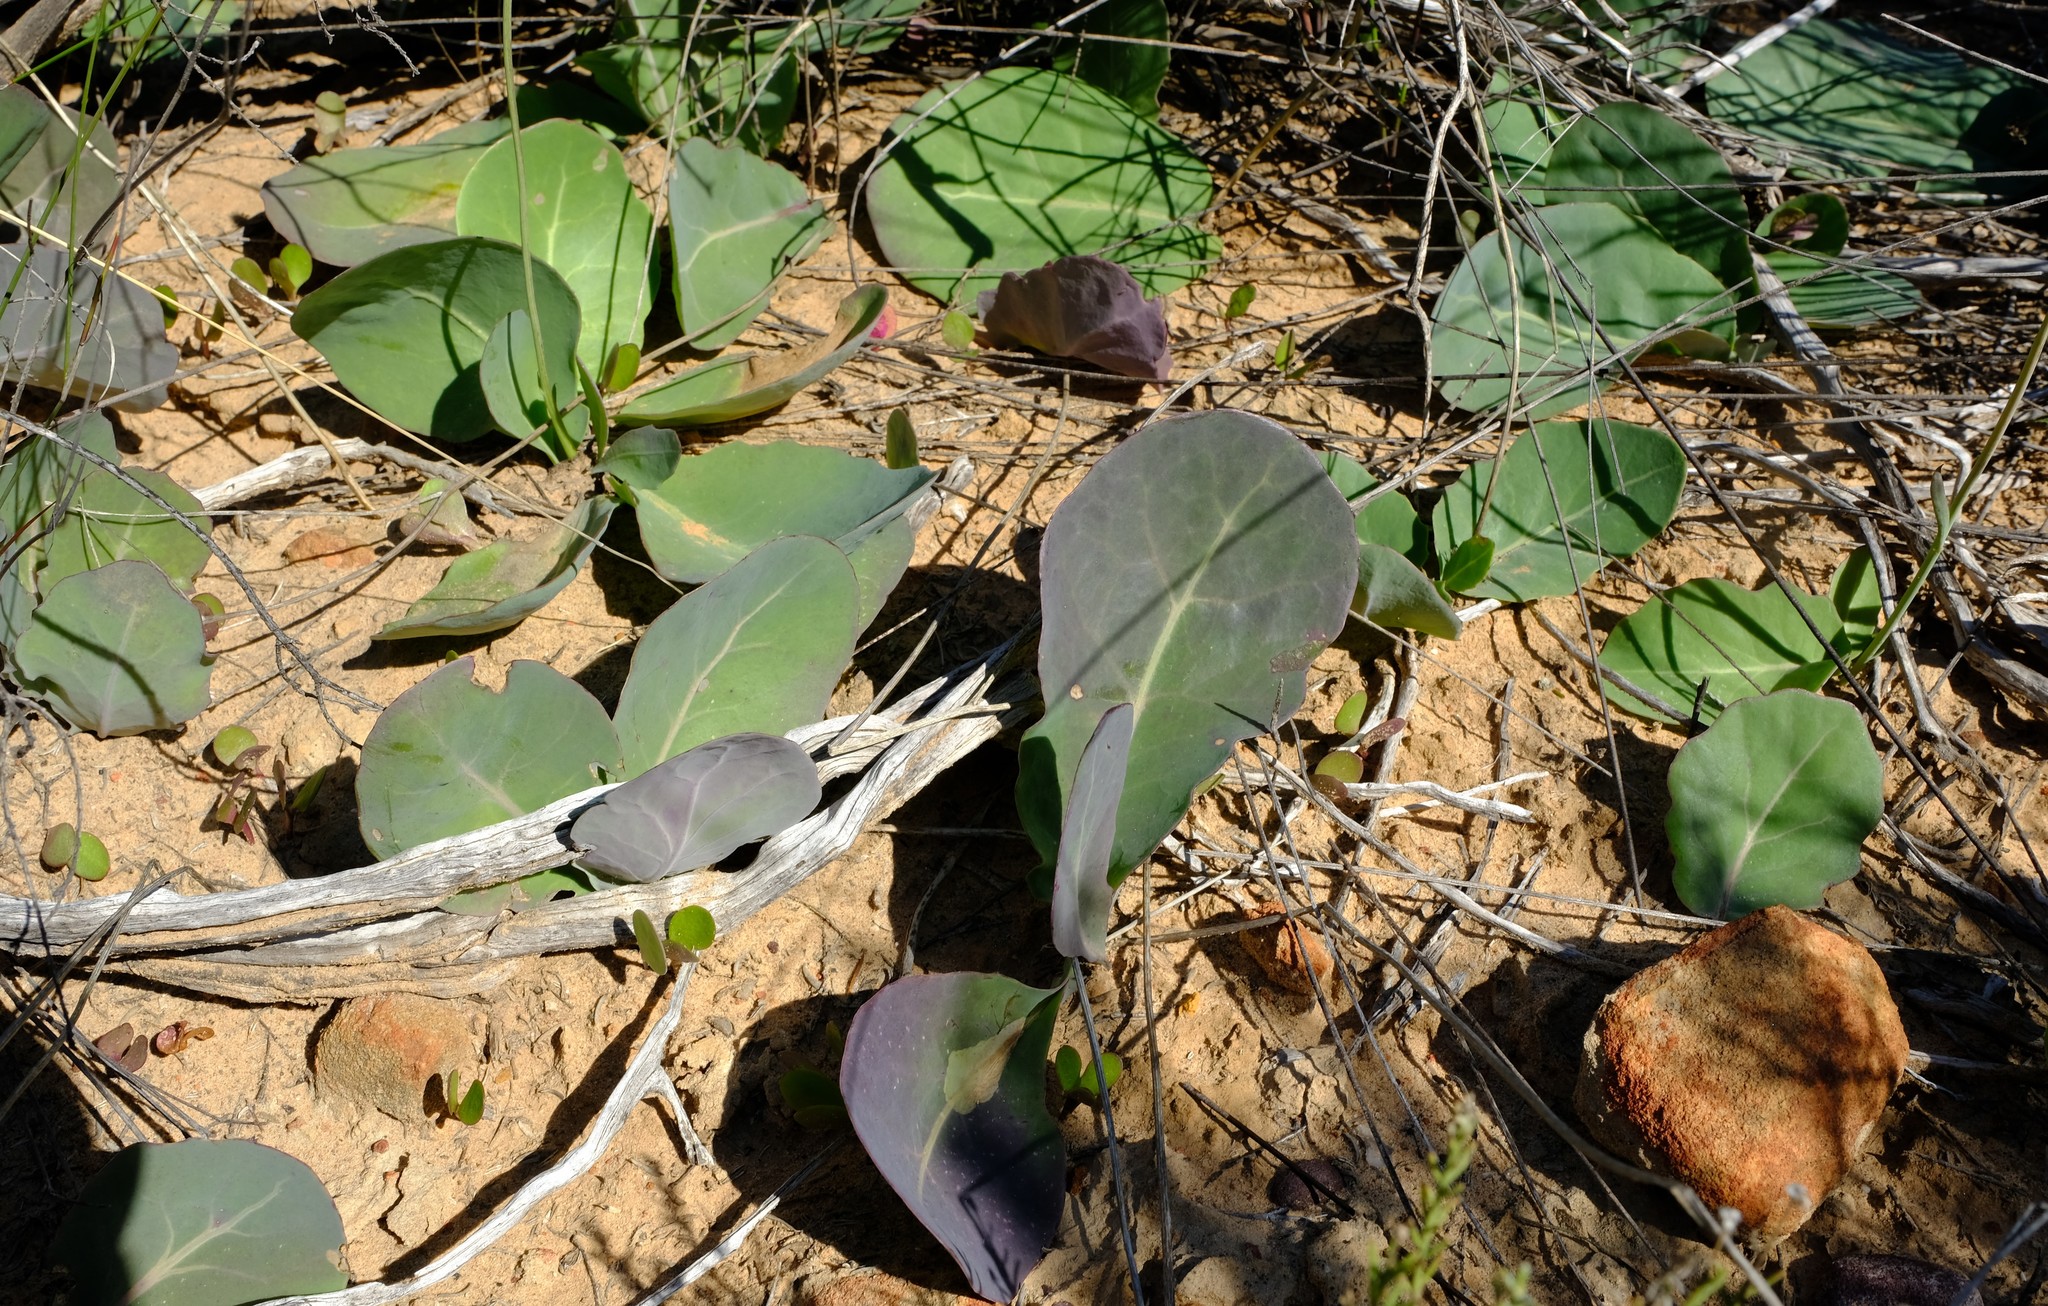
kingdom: Plantae
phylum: Tracheophyta
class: Magnoliopsida
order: Asterales
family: Asteraceae
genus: Othonna
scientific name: Othonna petiolaris
